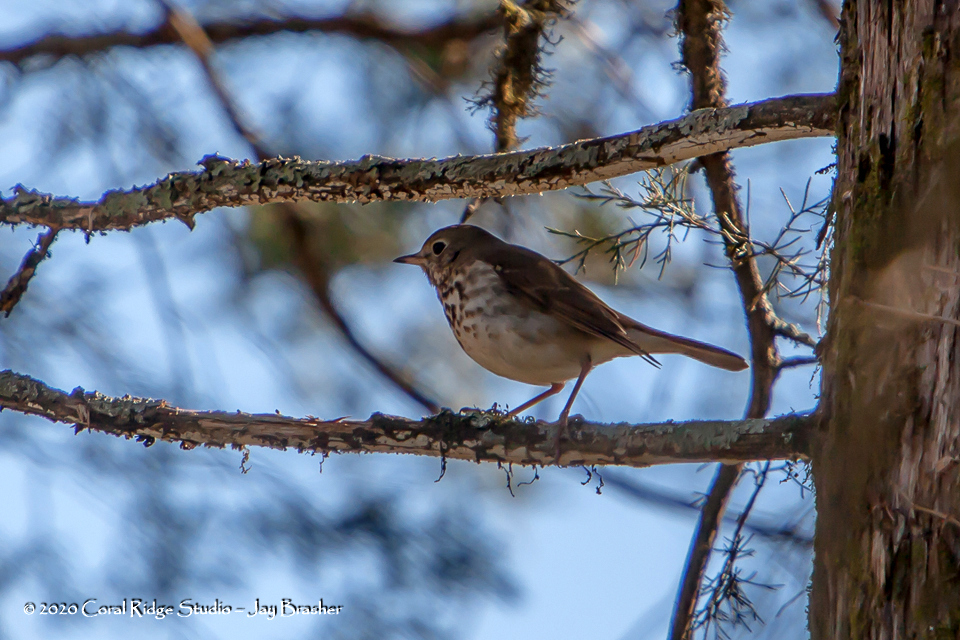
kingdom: Animalia
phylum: Chordata
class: Aves
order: Passeriformes
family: Turdidae
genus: Catharus
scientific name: Catharus guttatus
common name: Hermit thrush
